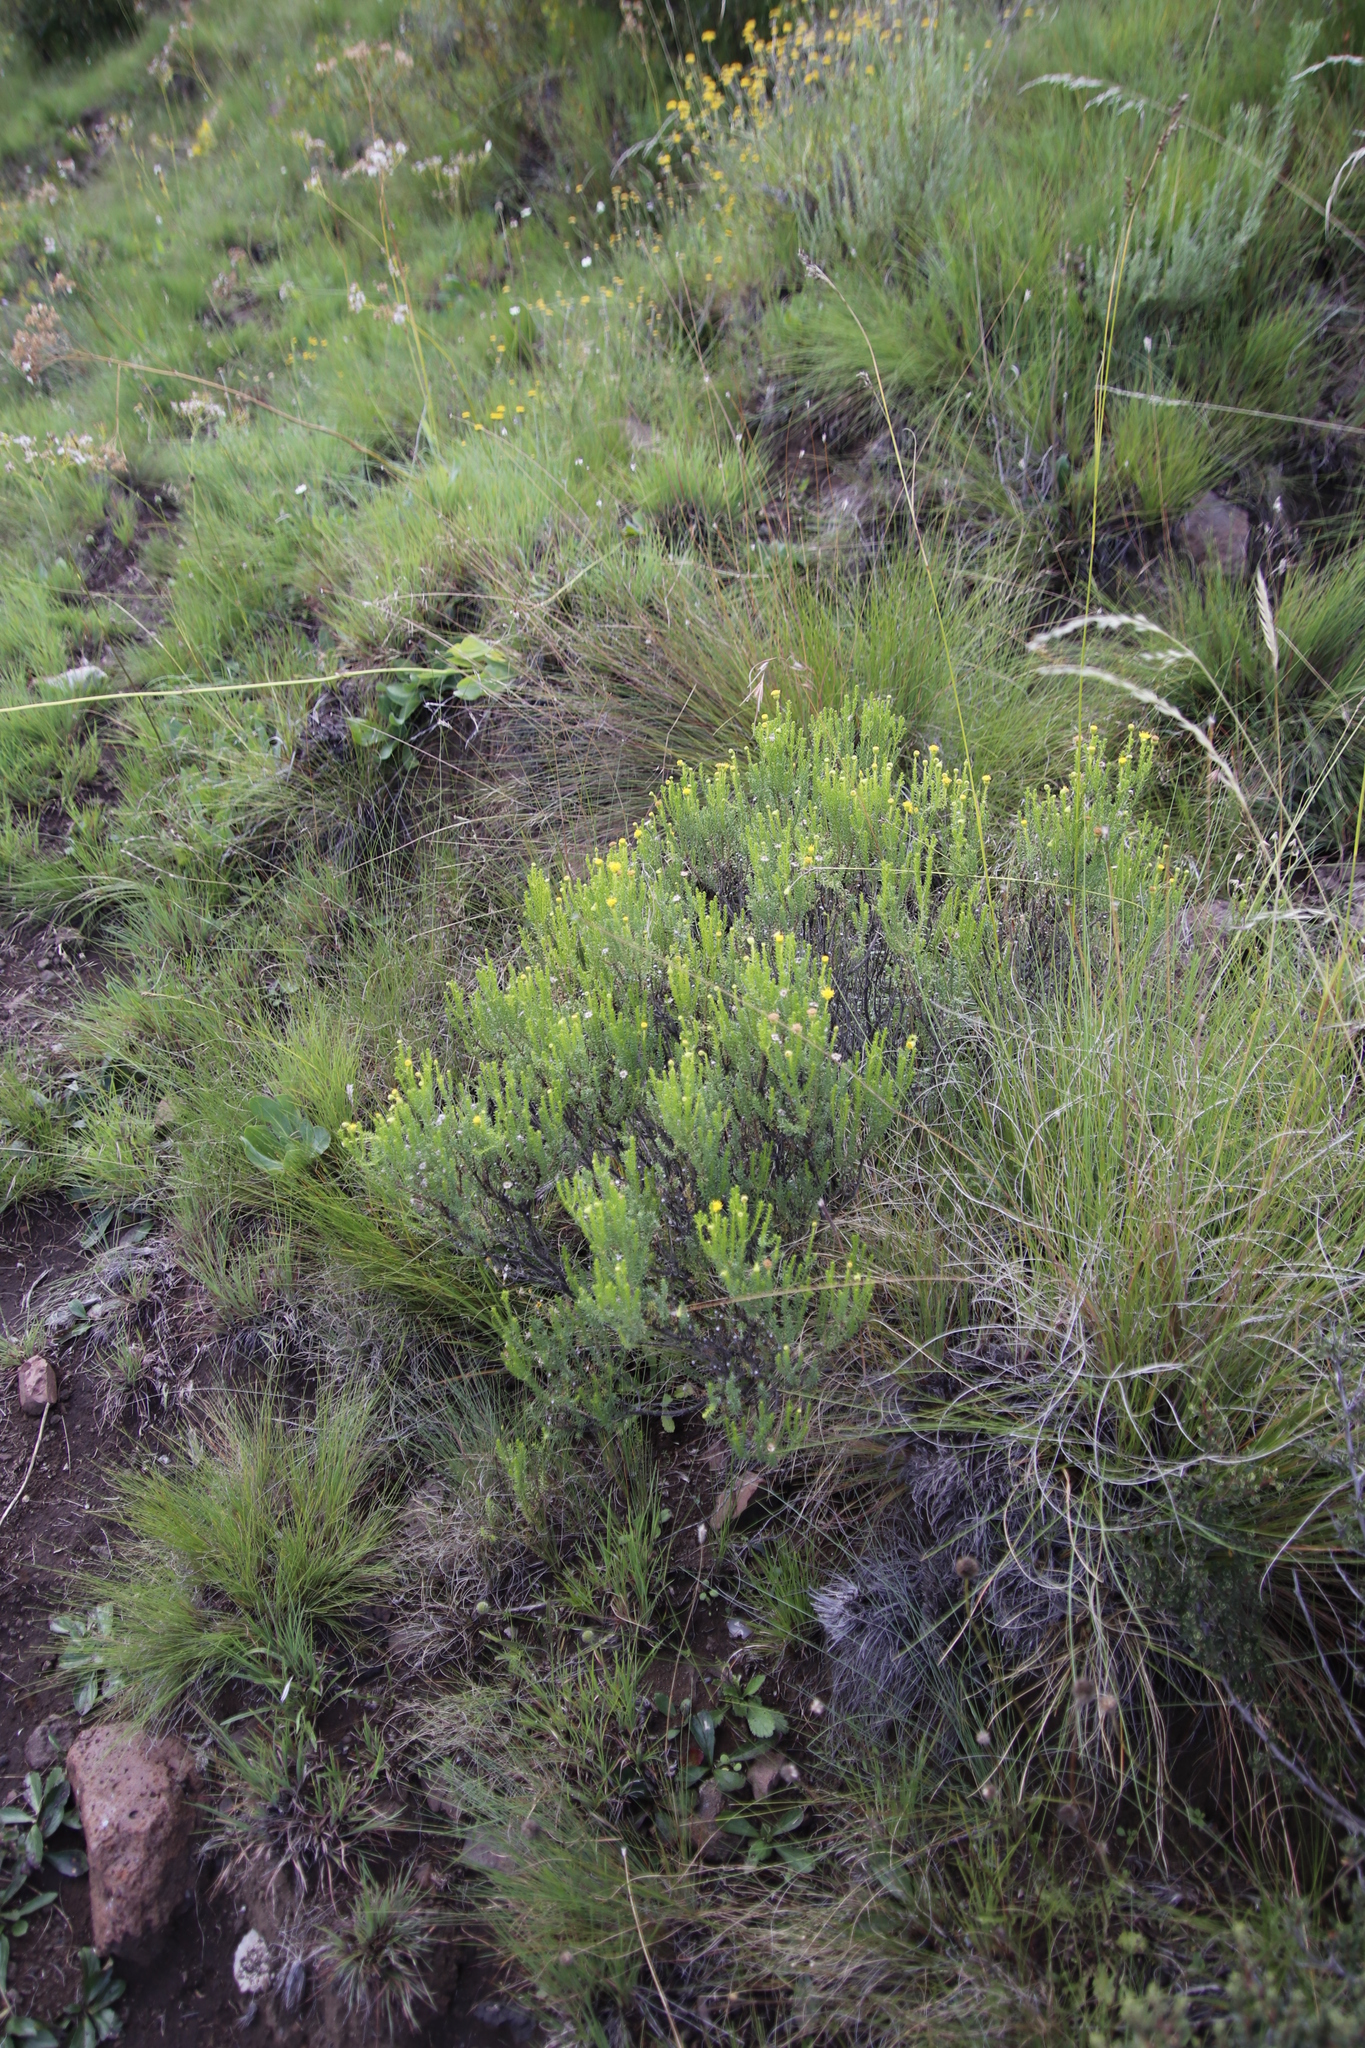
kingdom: Plantae
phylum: Tracheophyta
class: Magnoliopsida
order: Asterales
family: Asteraceae
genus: Chrysocoma
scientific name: Chrysocoma ciliata
